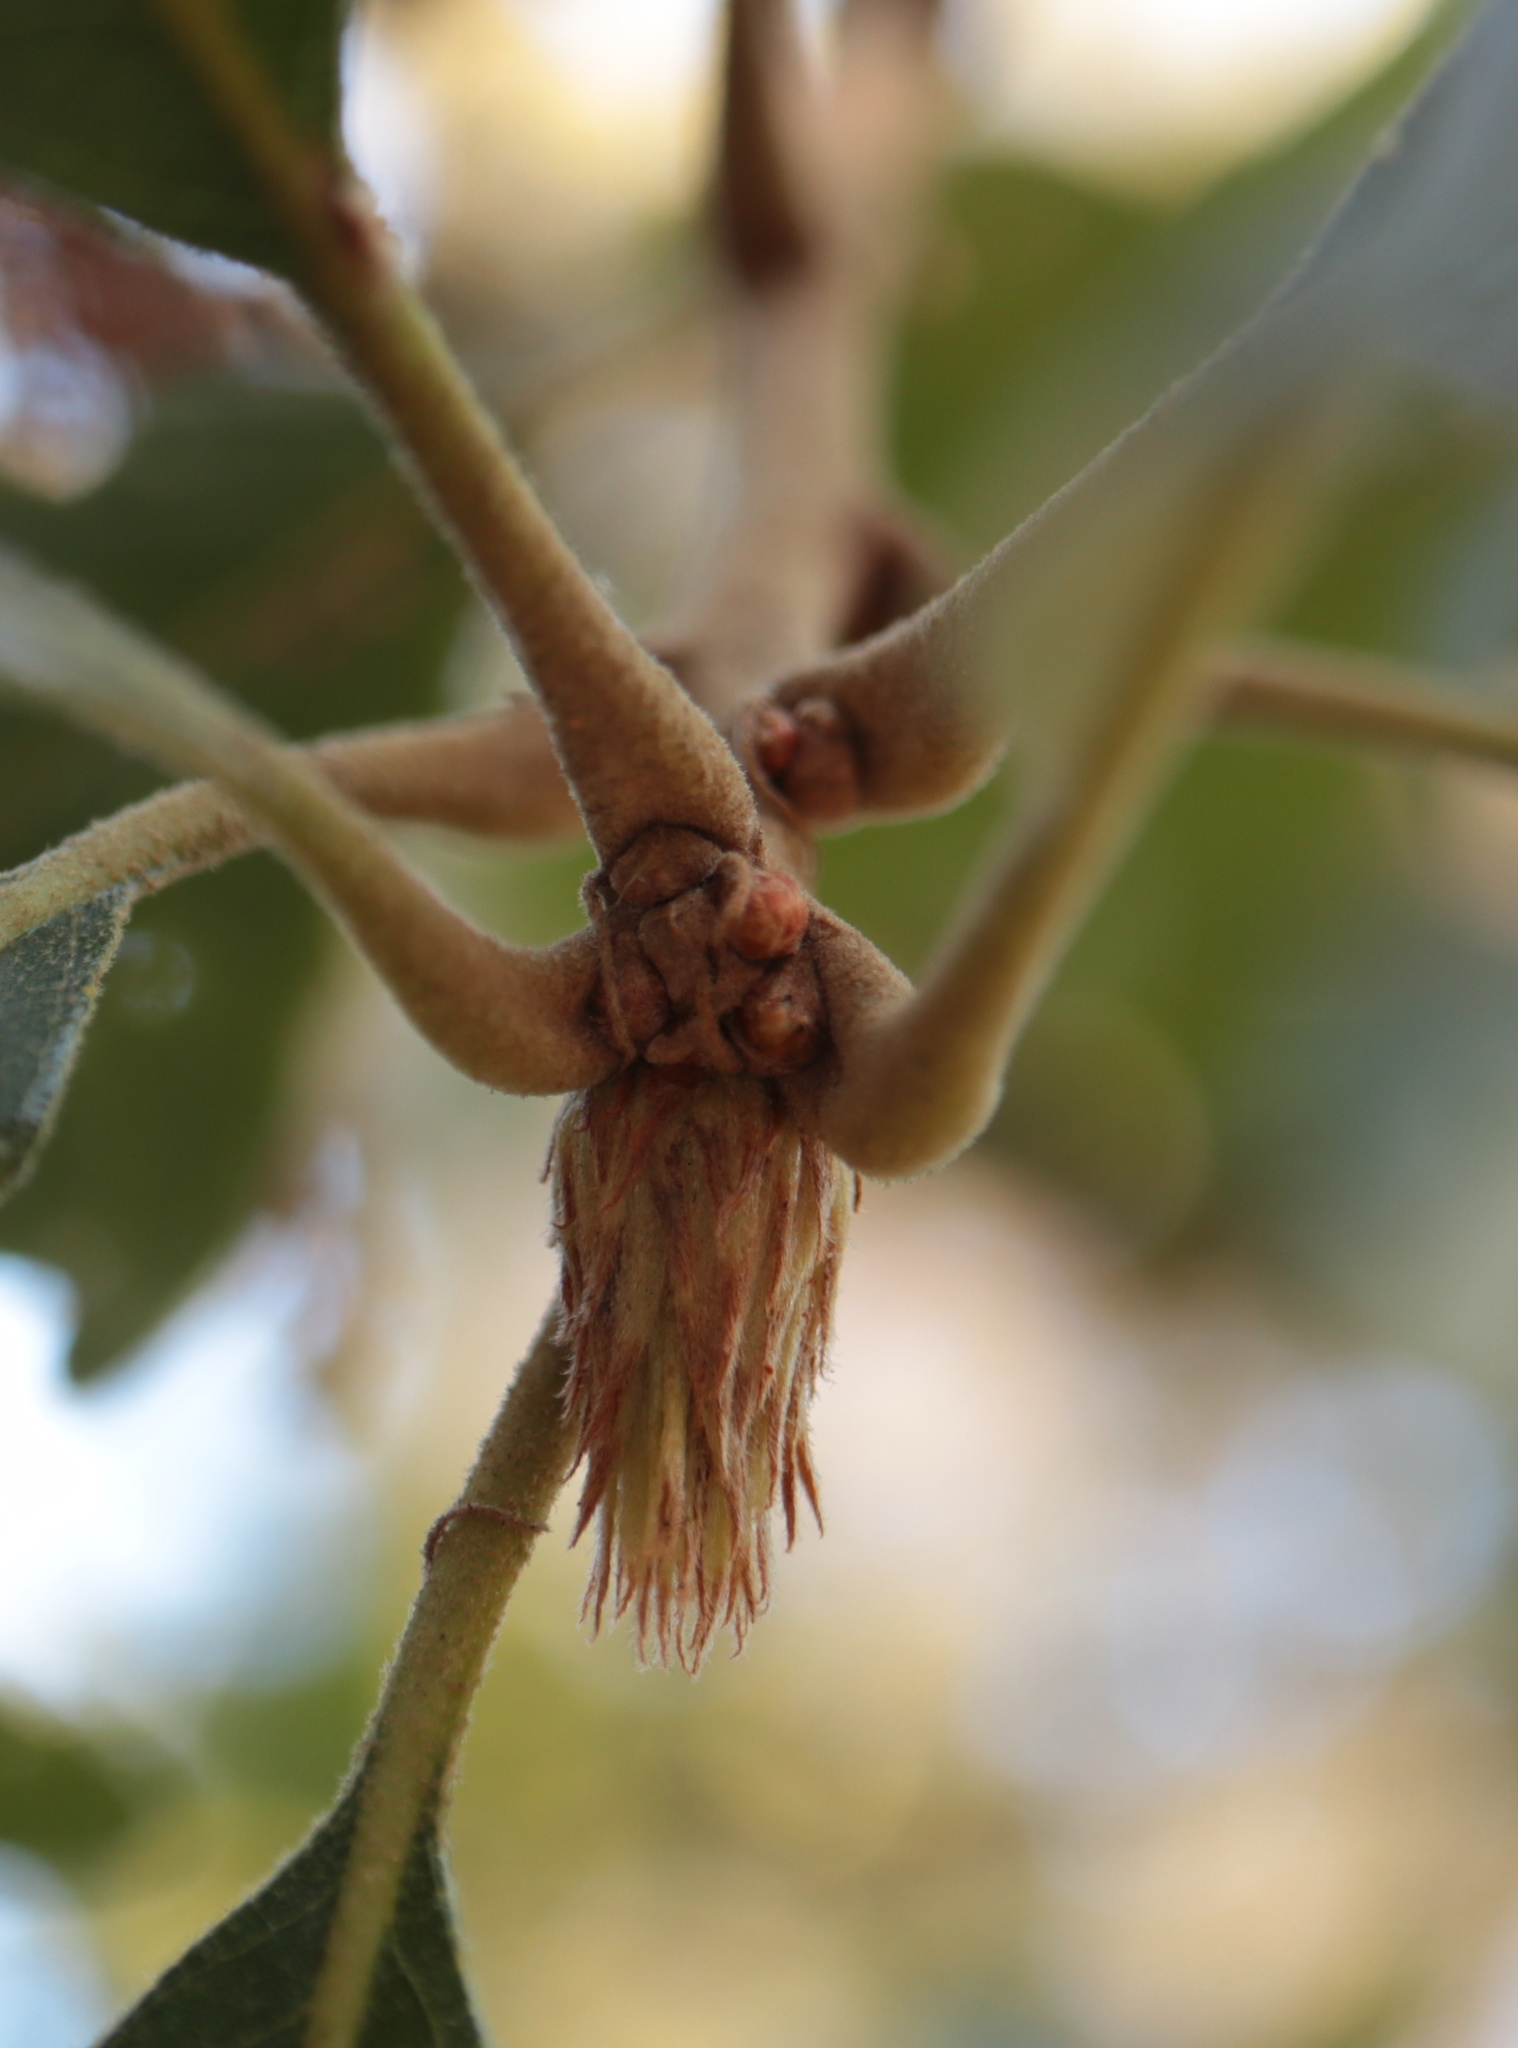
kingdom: Animalia
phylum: Arthropoda
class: Insecta
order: Hymenoptera
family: Cynipidae
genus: Andricus
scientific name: Andricus
